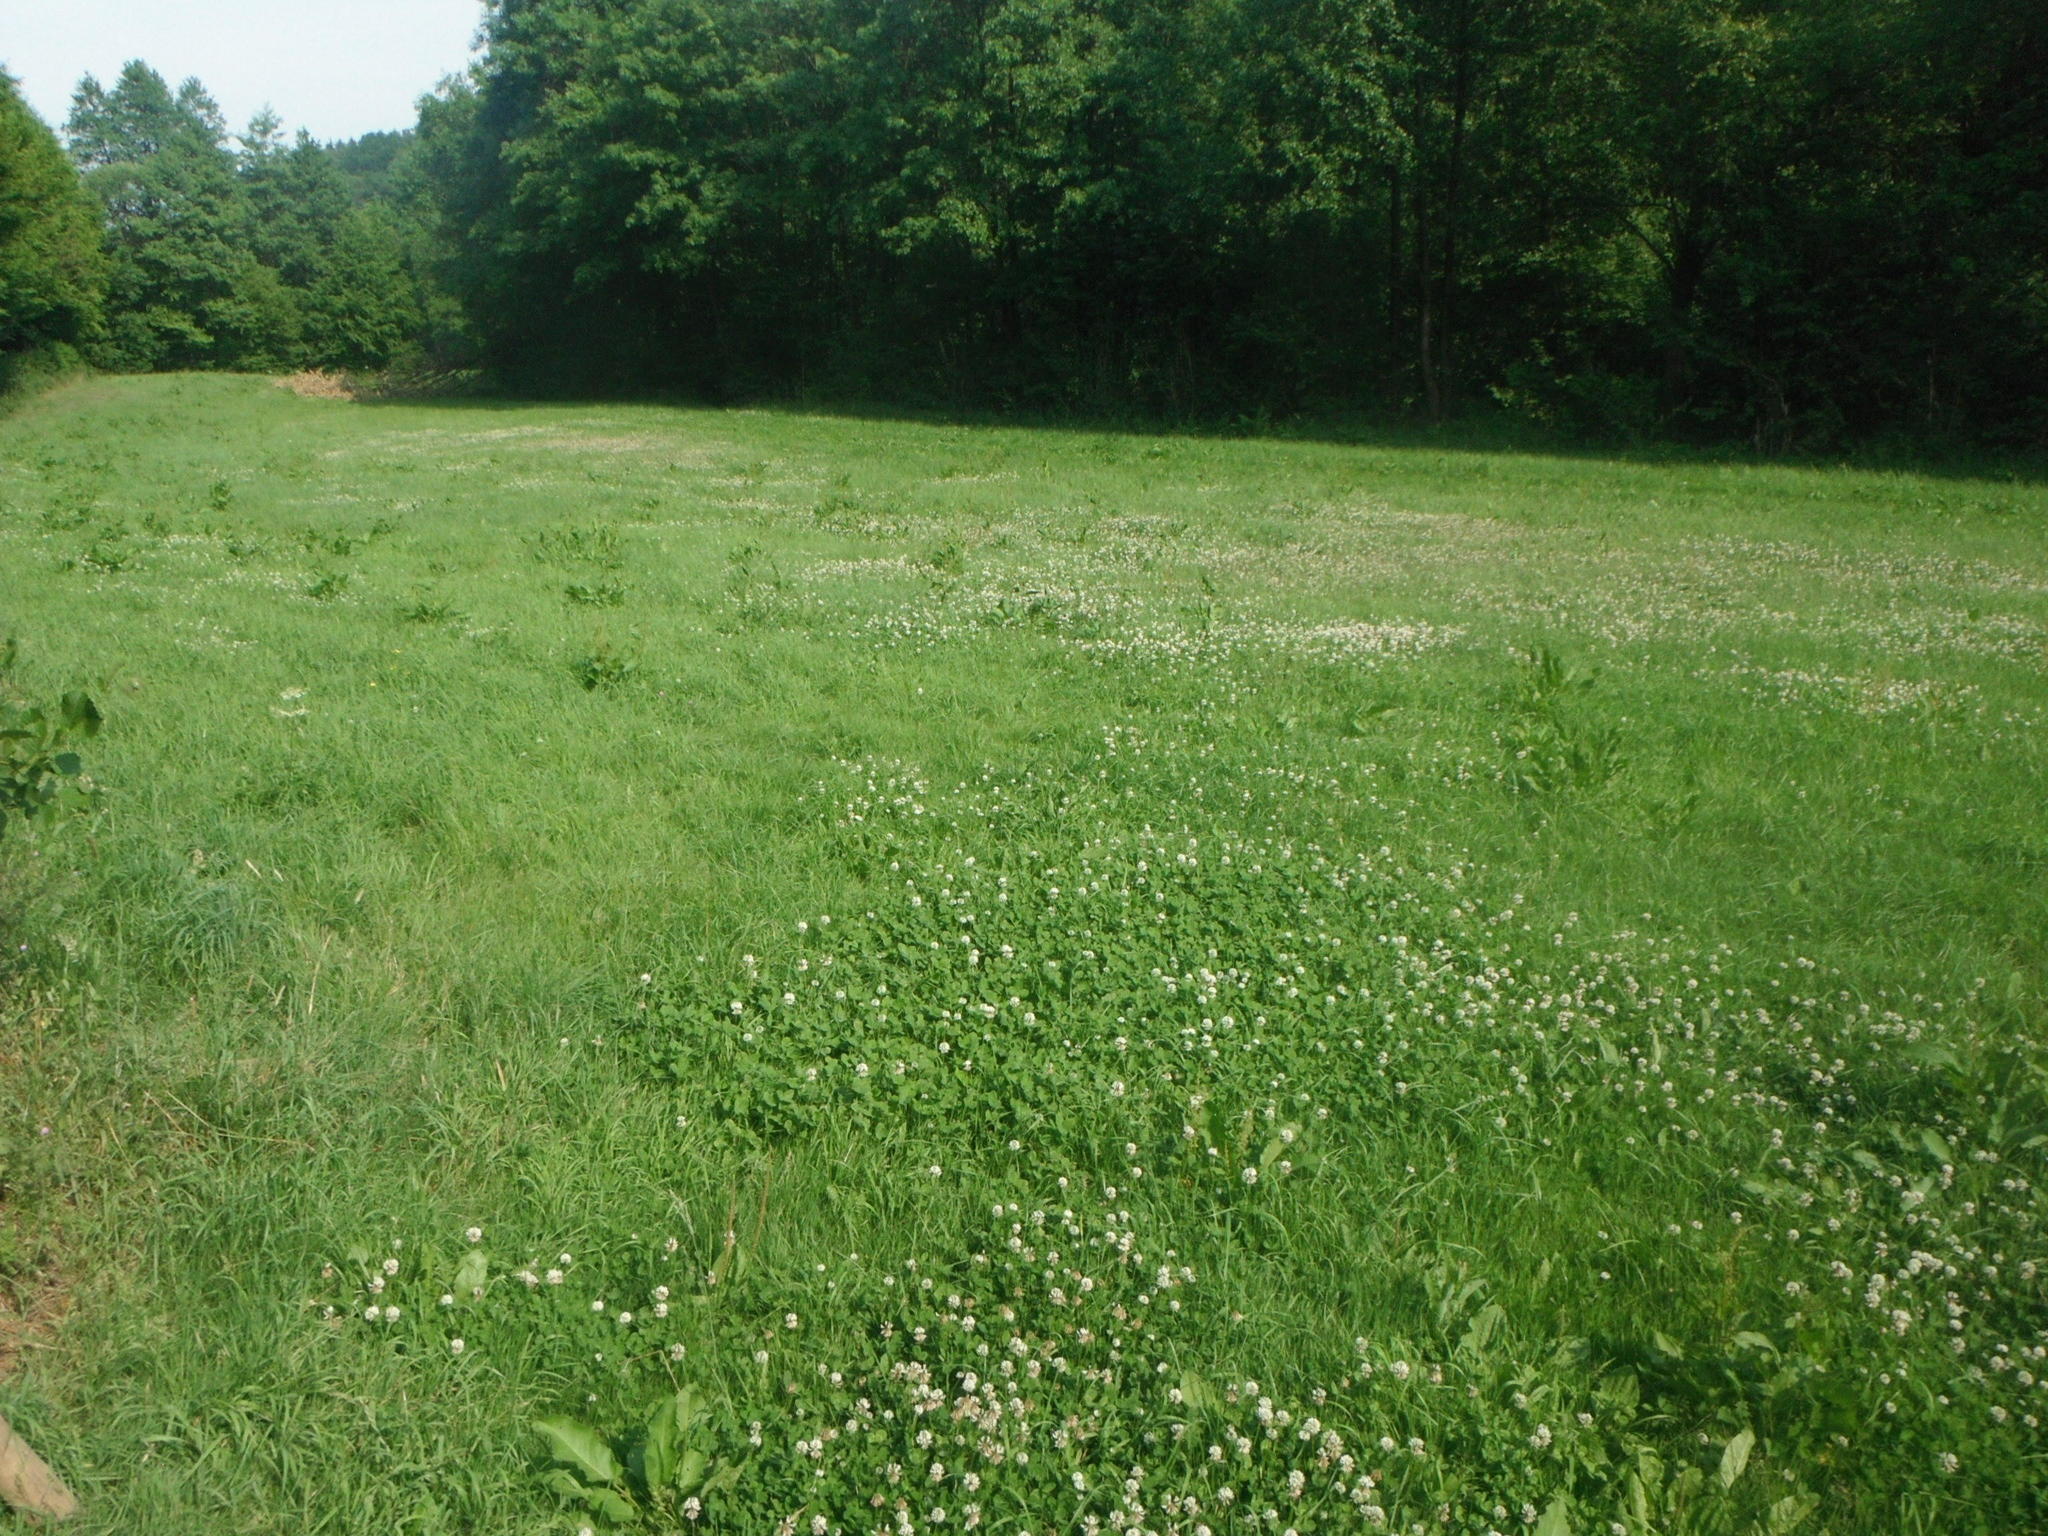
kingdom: Plantae
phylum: Tracheophyta
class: Magnoliopsida
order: Fabales
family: Fabaceae
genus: Trifolium
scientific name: Trifolium repens
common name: White clover
